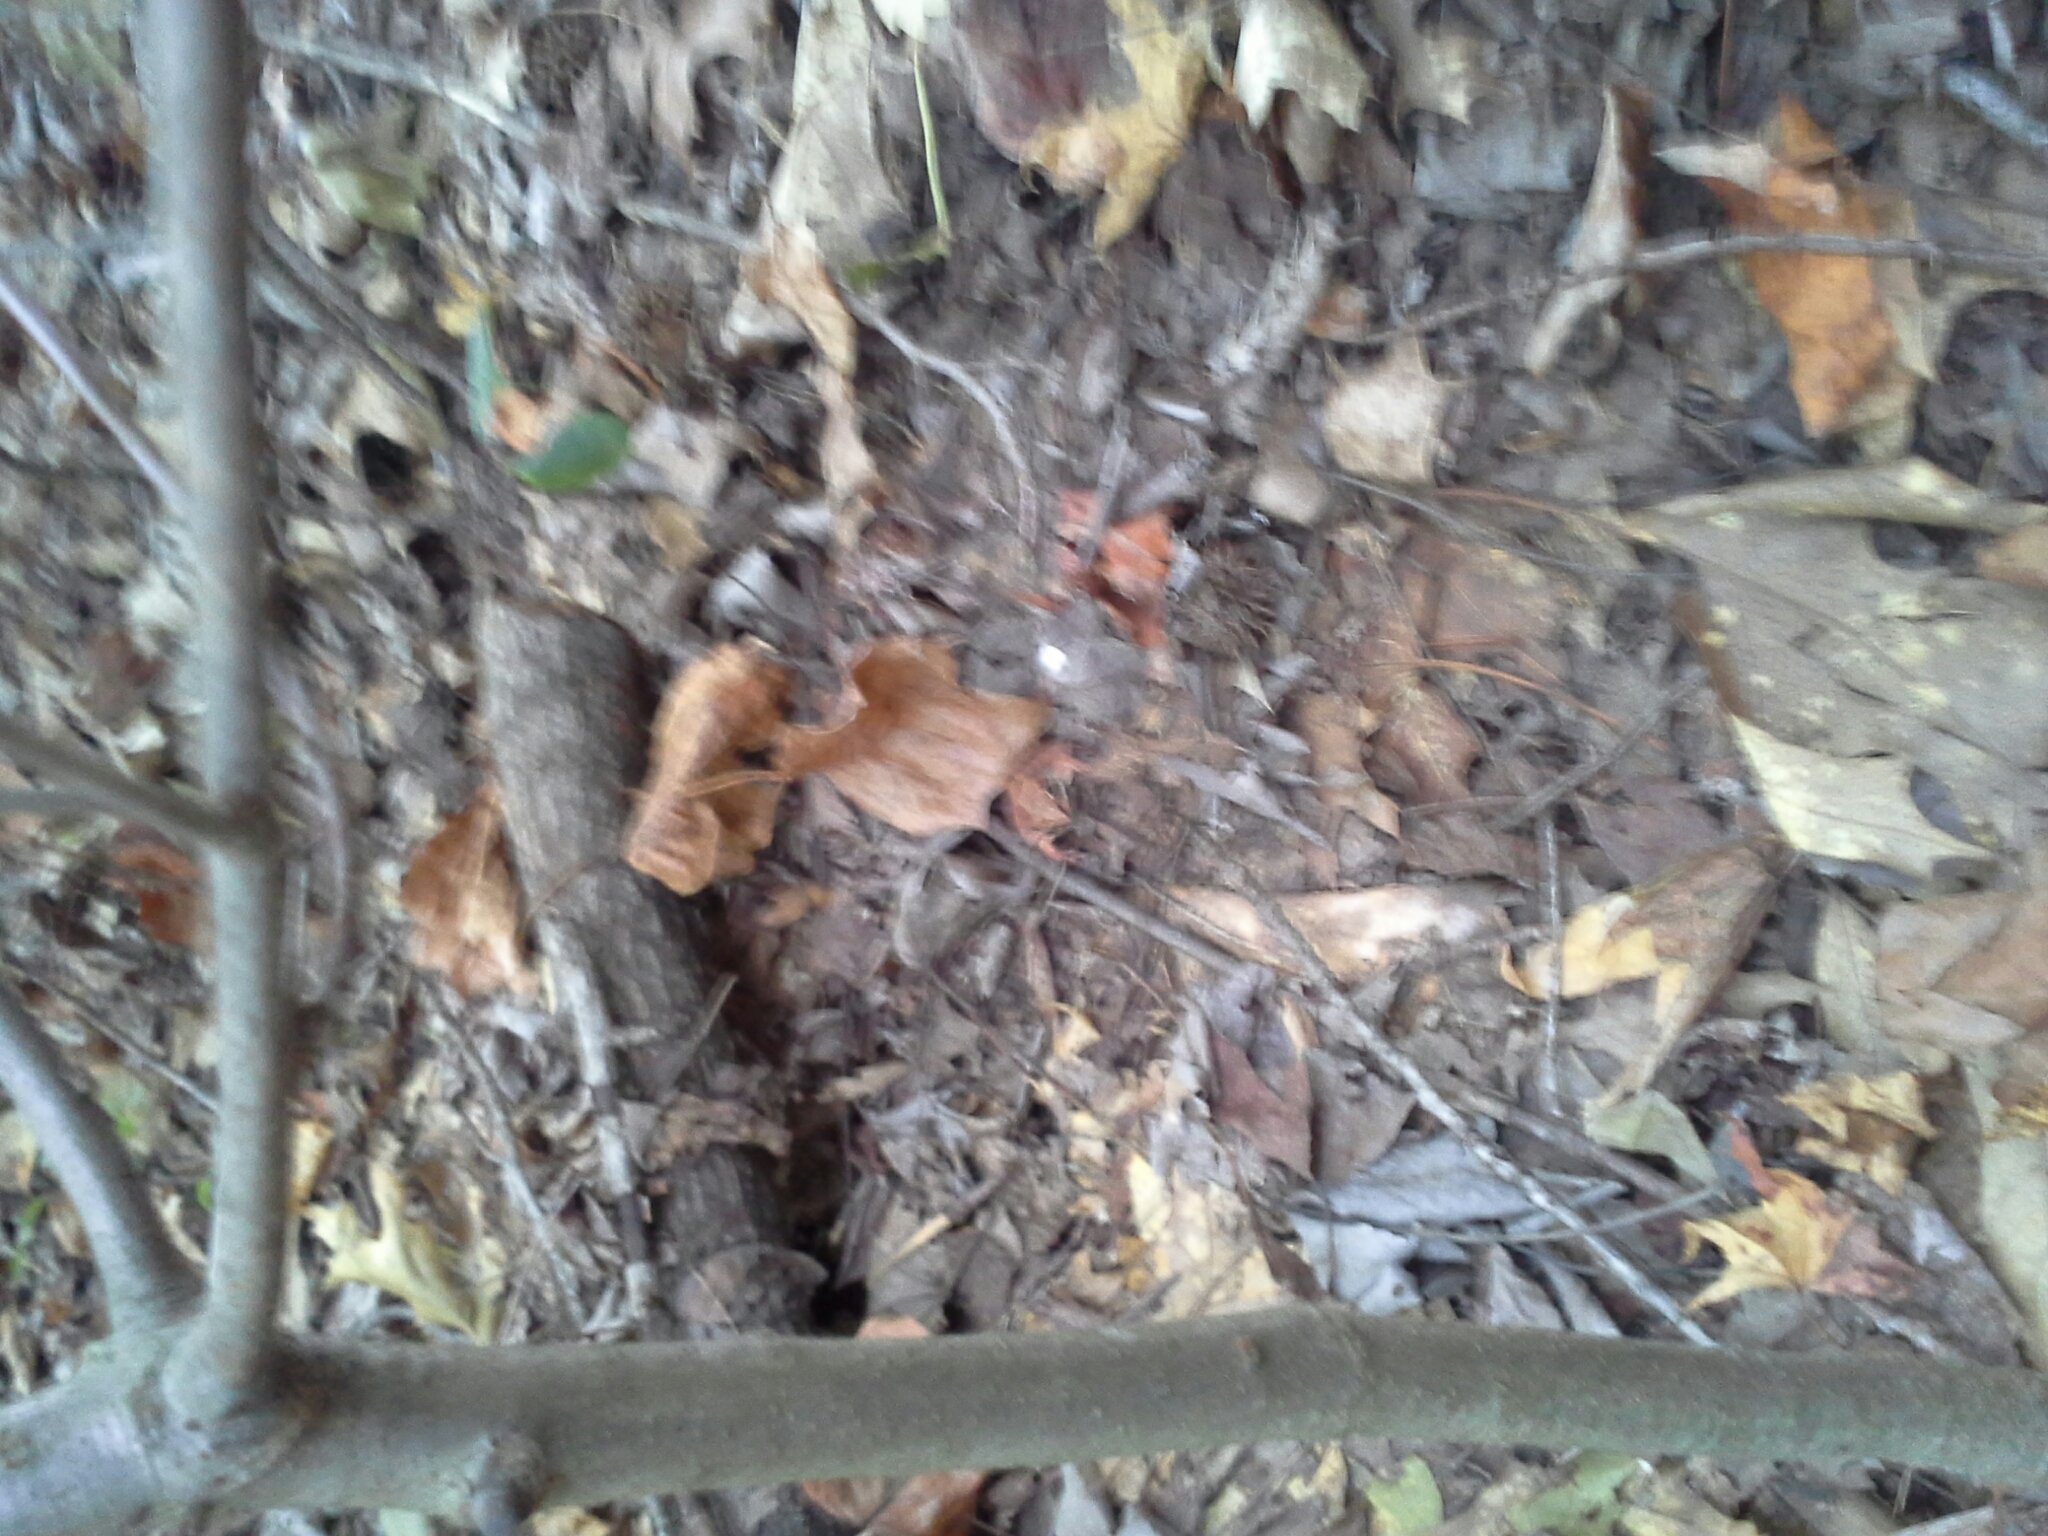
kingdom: Animalia
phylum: Chordata
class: Amphibia
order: Anura
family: Ranidae
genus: Lithobates
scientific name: Lithobates sylvaticus
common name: Wood frog
